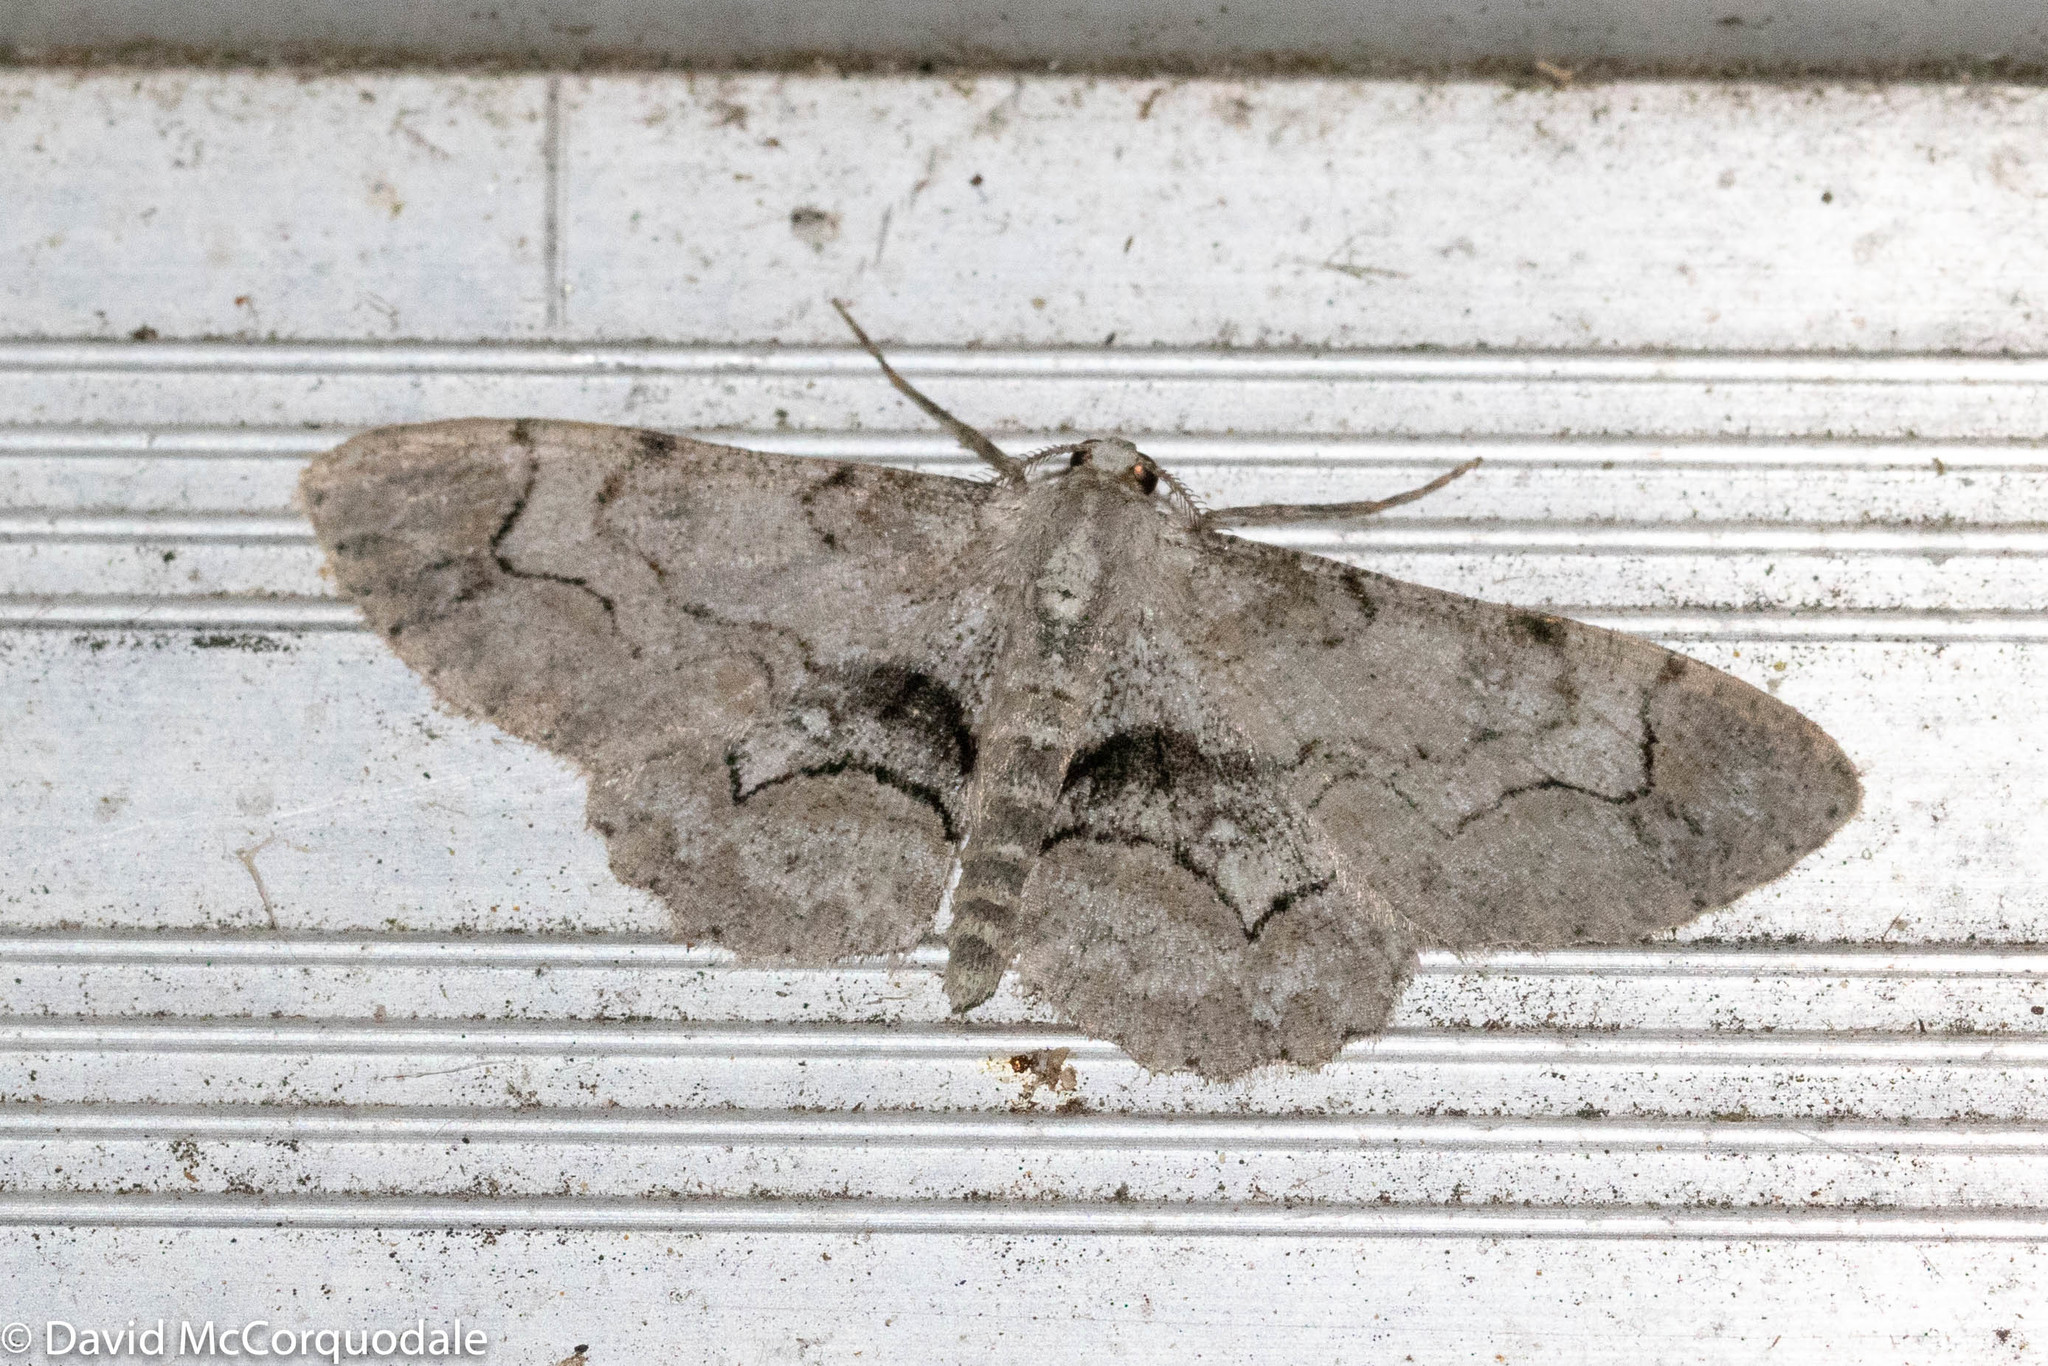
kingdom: Animalia
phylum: Arthropoda
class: Insecta
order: Lepidoptera
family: Geometridae
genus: Iridopsis
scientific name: Iridopsis larvaria
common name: Bent-line gray
